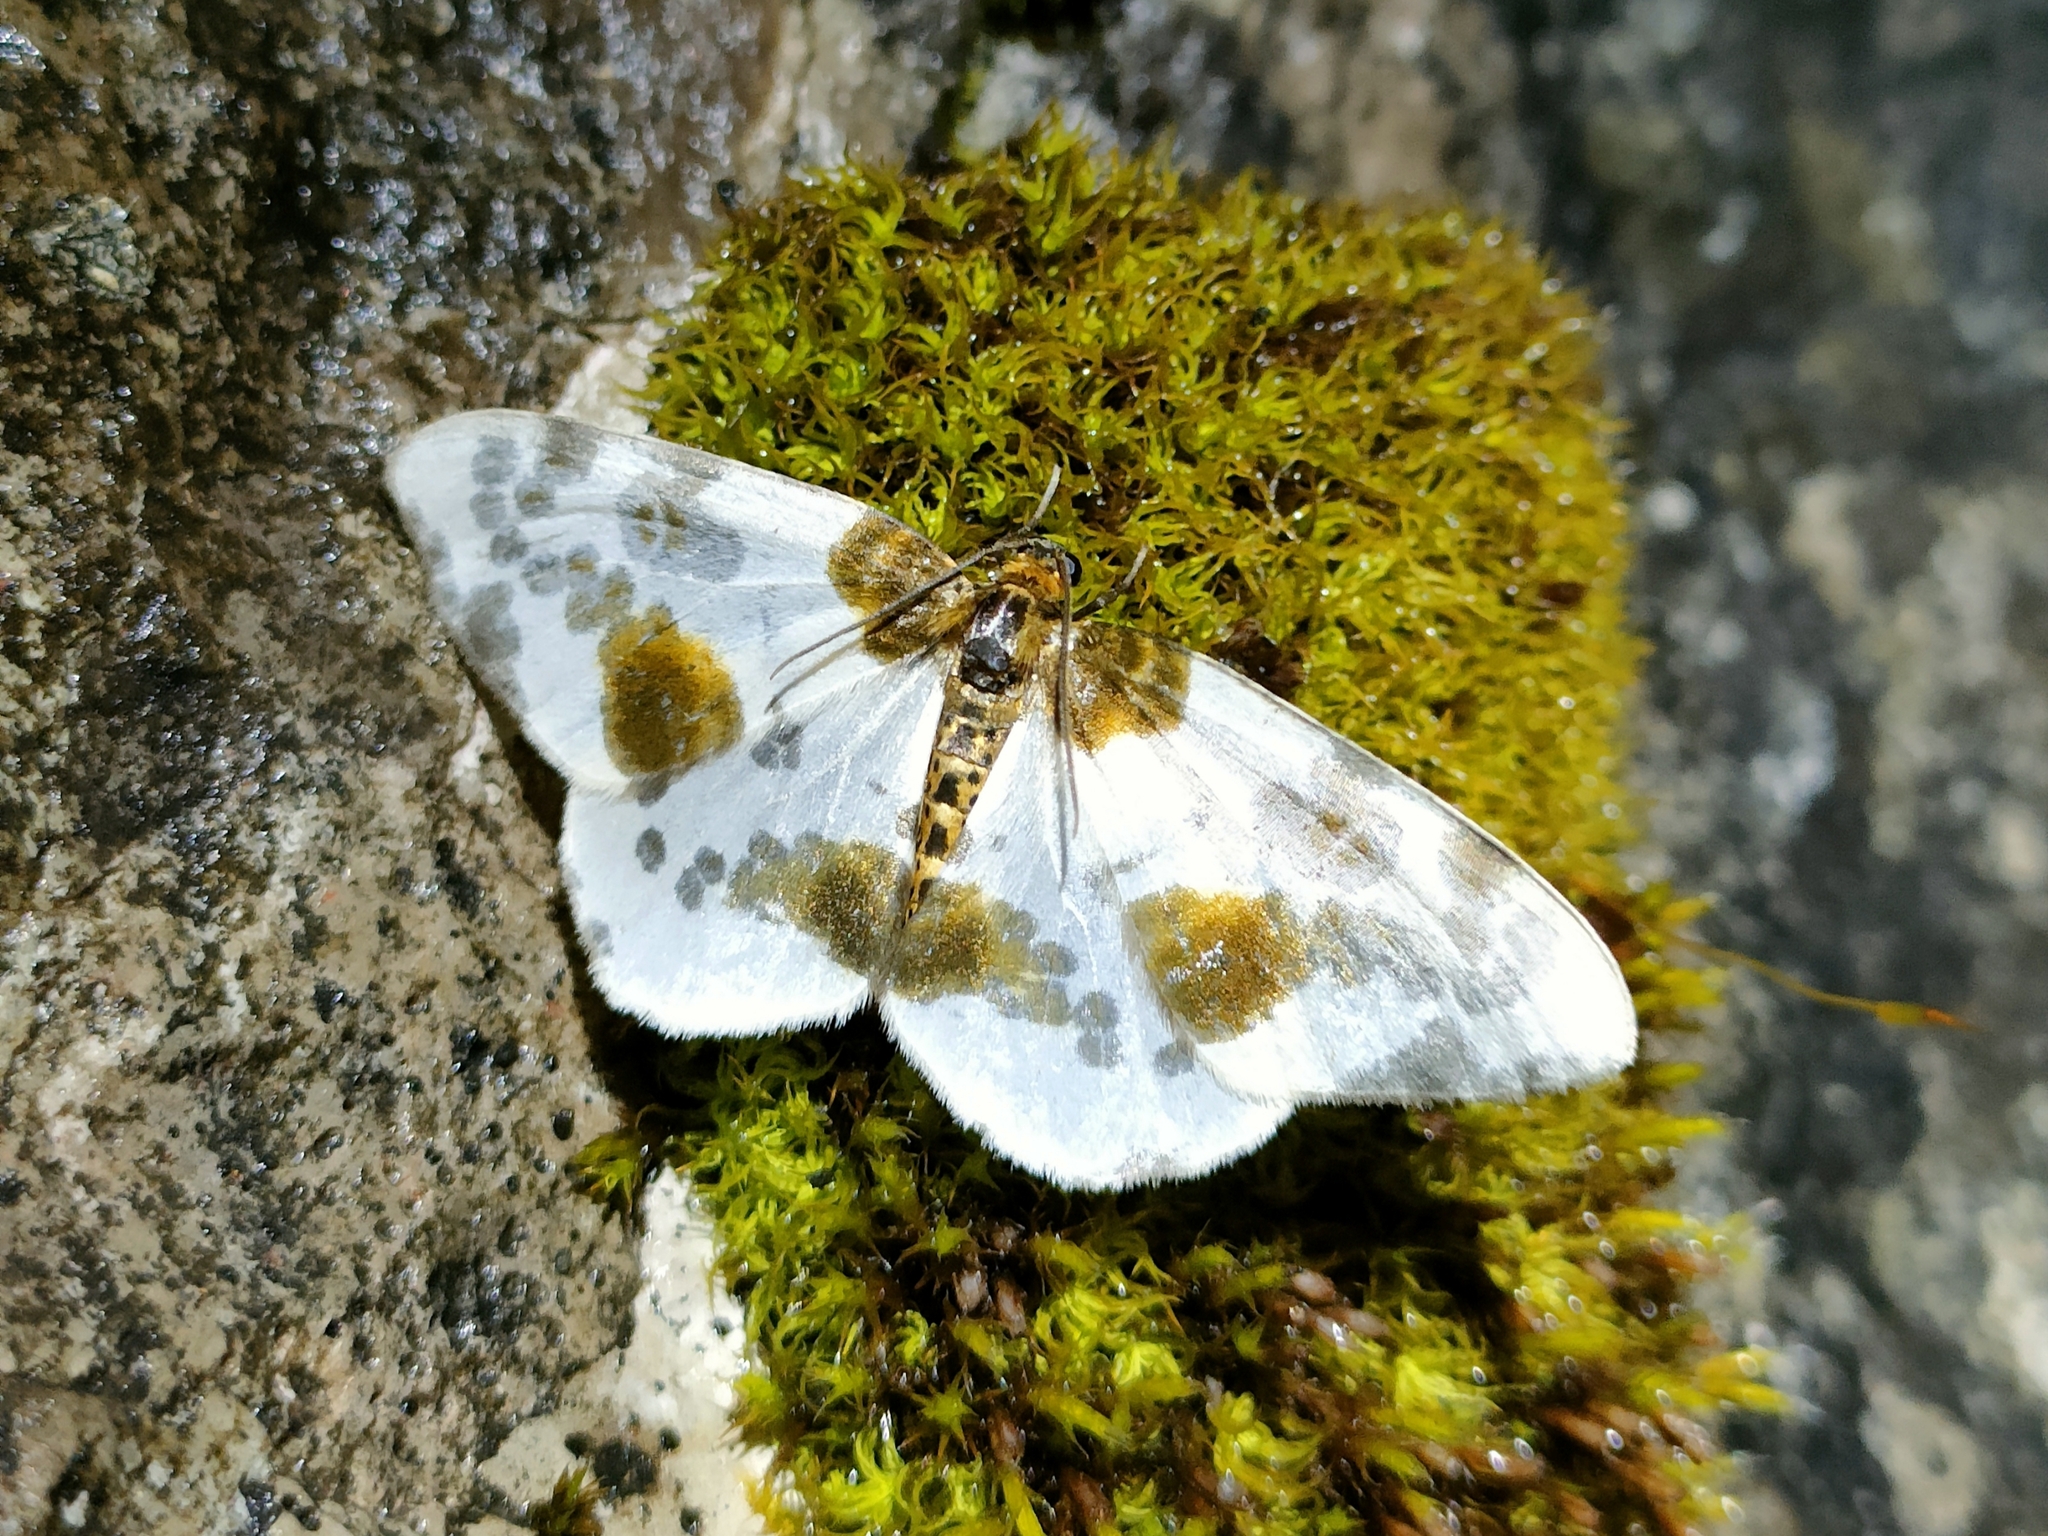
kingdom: Animalia
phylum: Arthropoda
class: Insecta
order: Lepidoptera
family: Geometridae
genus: Abraxas
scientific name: Abraxas sylvata
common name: Clouded magpie
